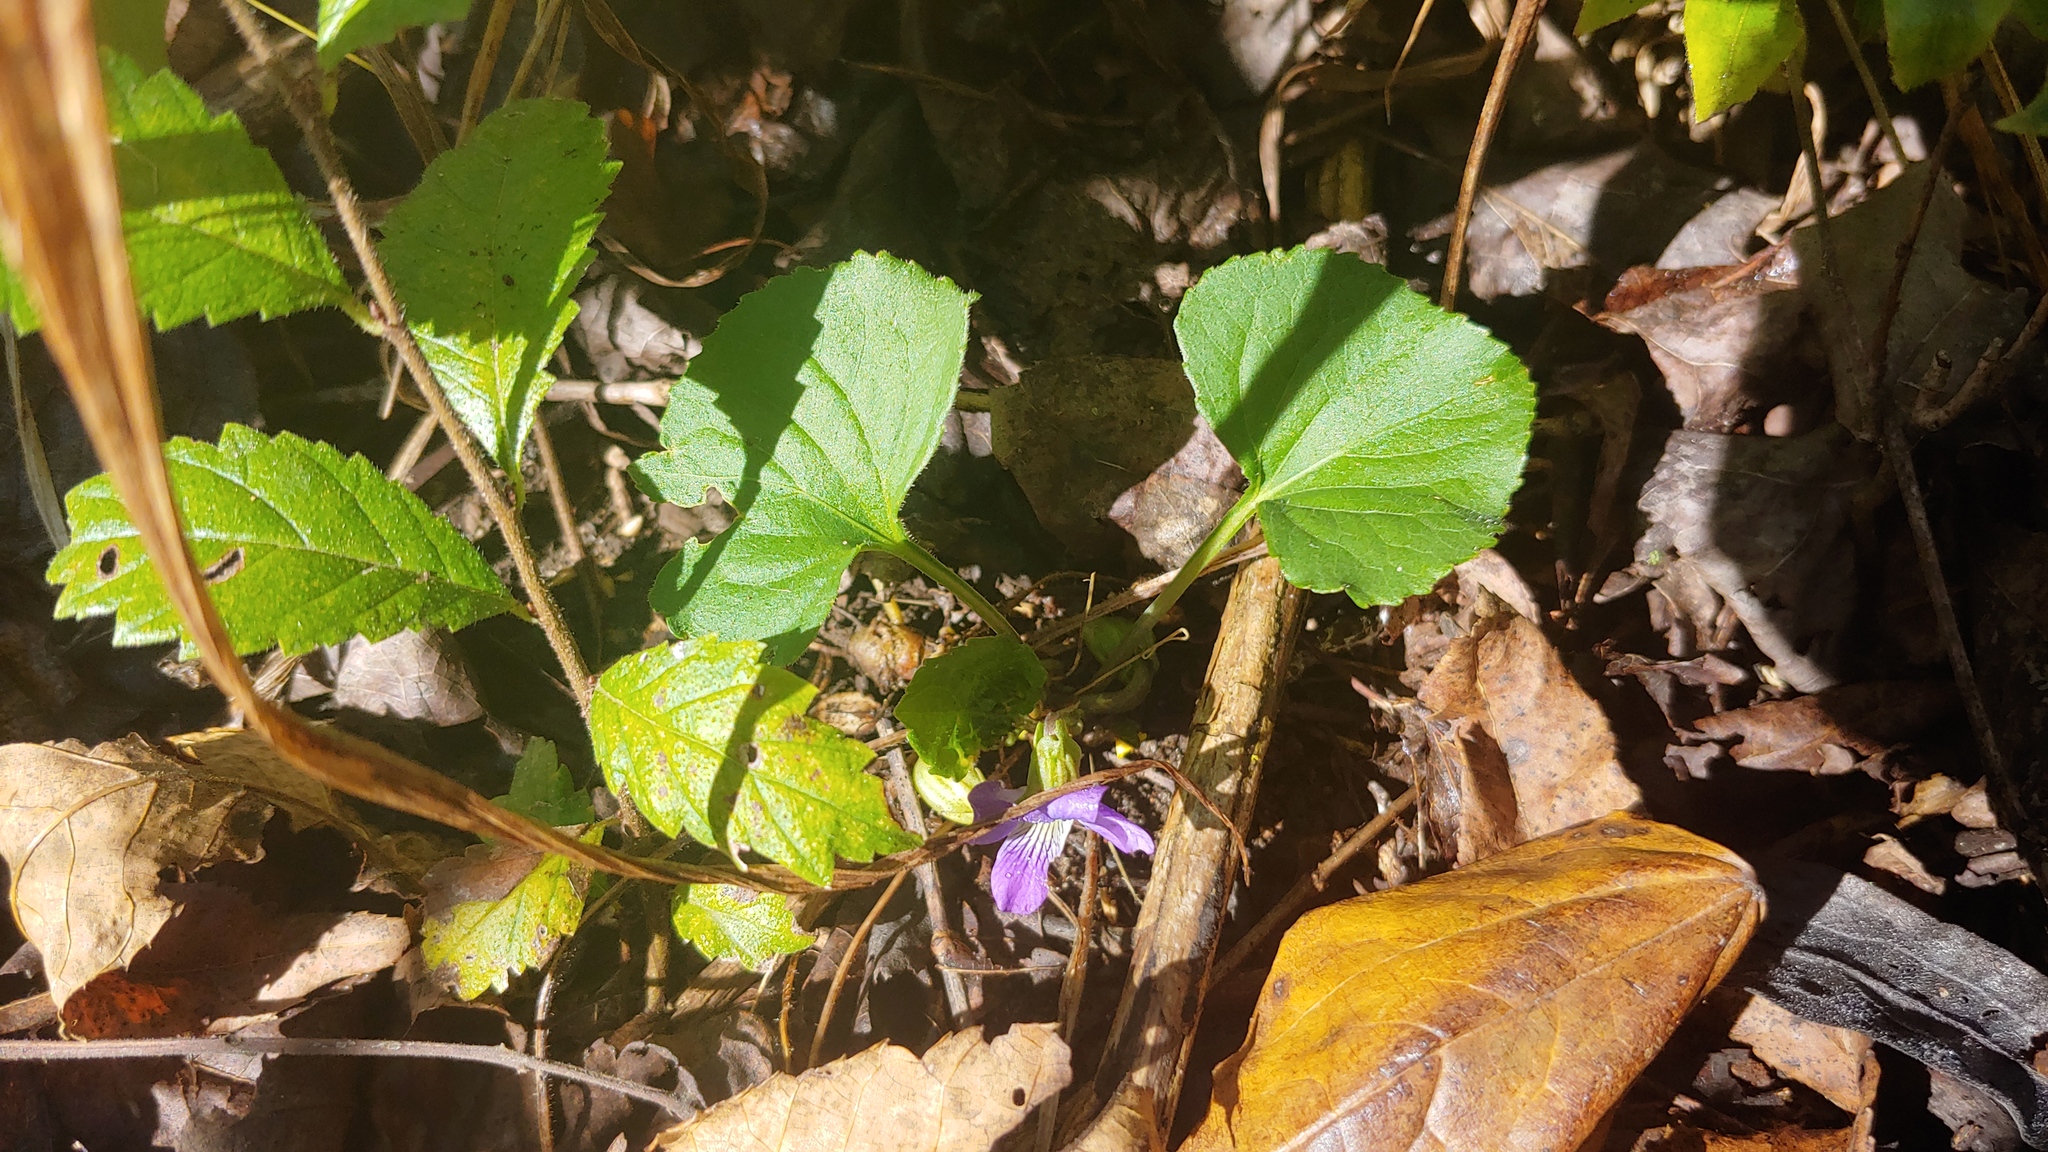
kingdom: Plantae
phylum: Tracheophyta
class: Magnoliopsida
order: Malpighiales
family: Violaceae
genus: Viola
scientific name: Viola sororia
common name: Dooryard violet
